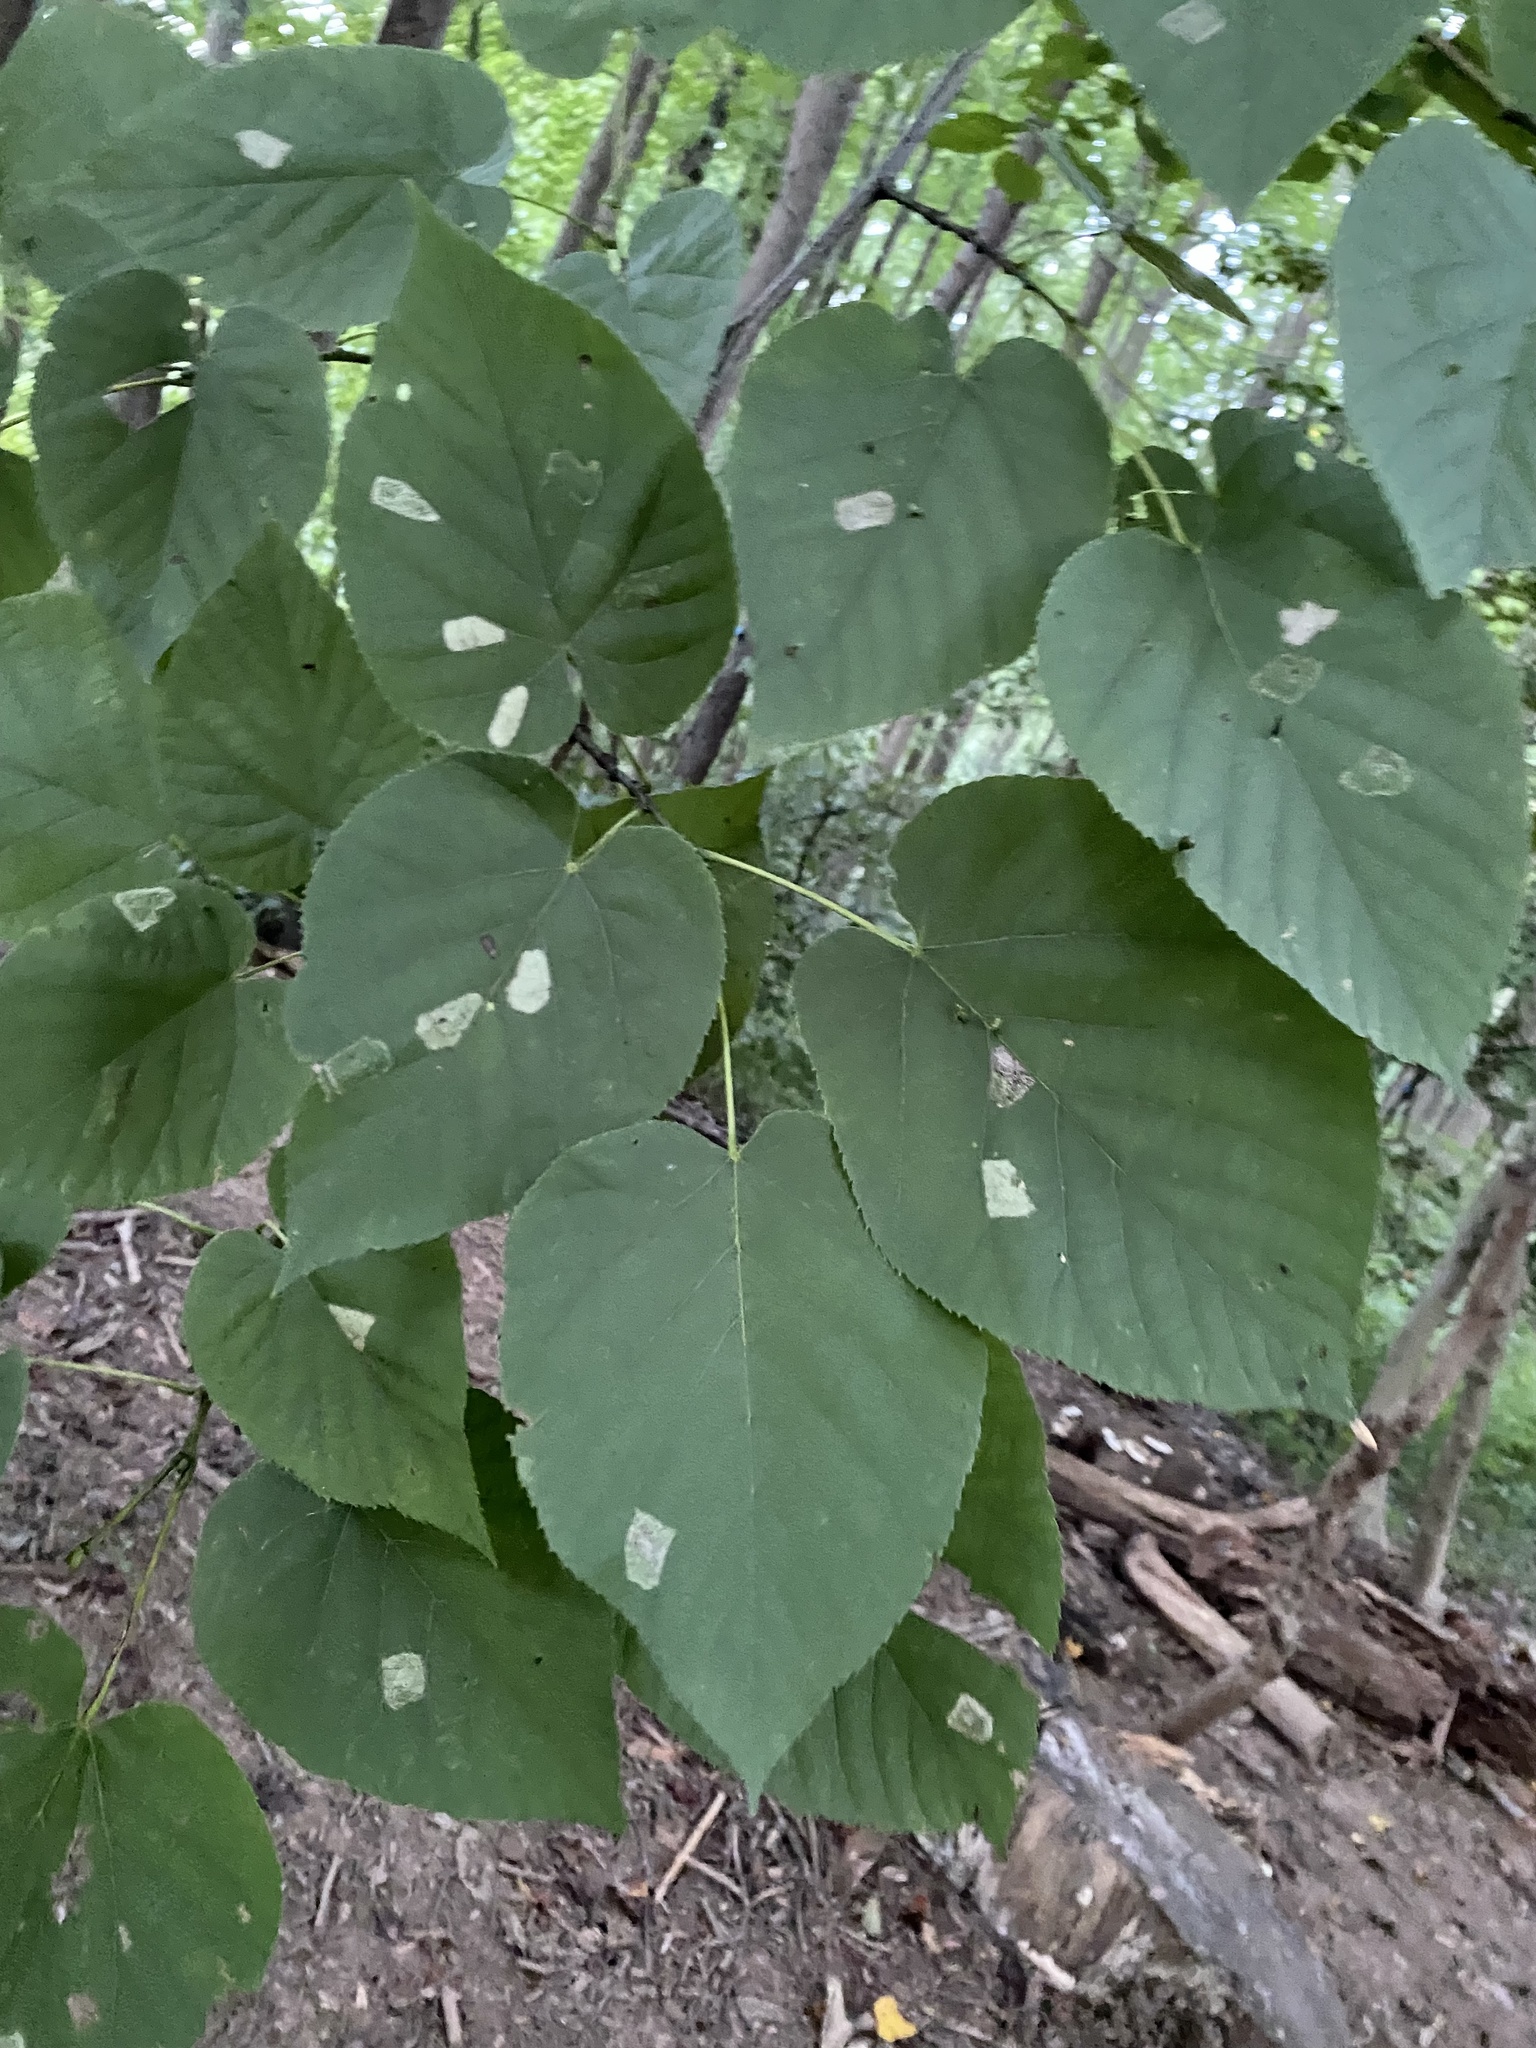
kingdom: Animalia
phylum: Arthropoda
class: Insecta
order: Lepidoptera
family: Gracillariidae
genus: Phyllonorycter
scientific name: Phyllonorycter lucetiella
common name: Basswood miner moth
